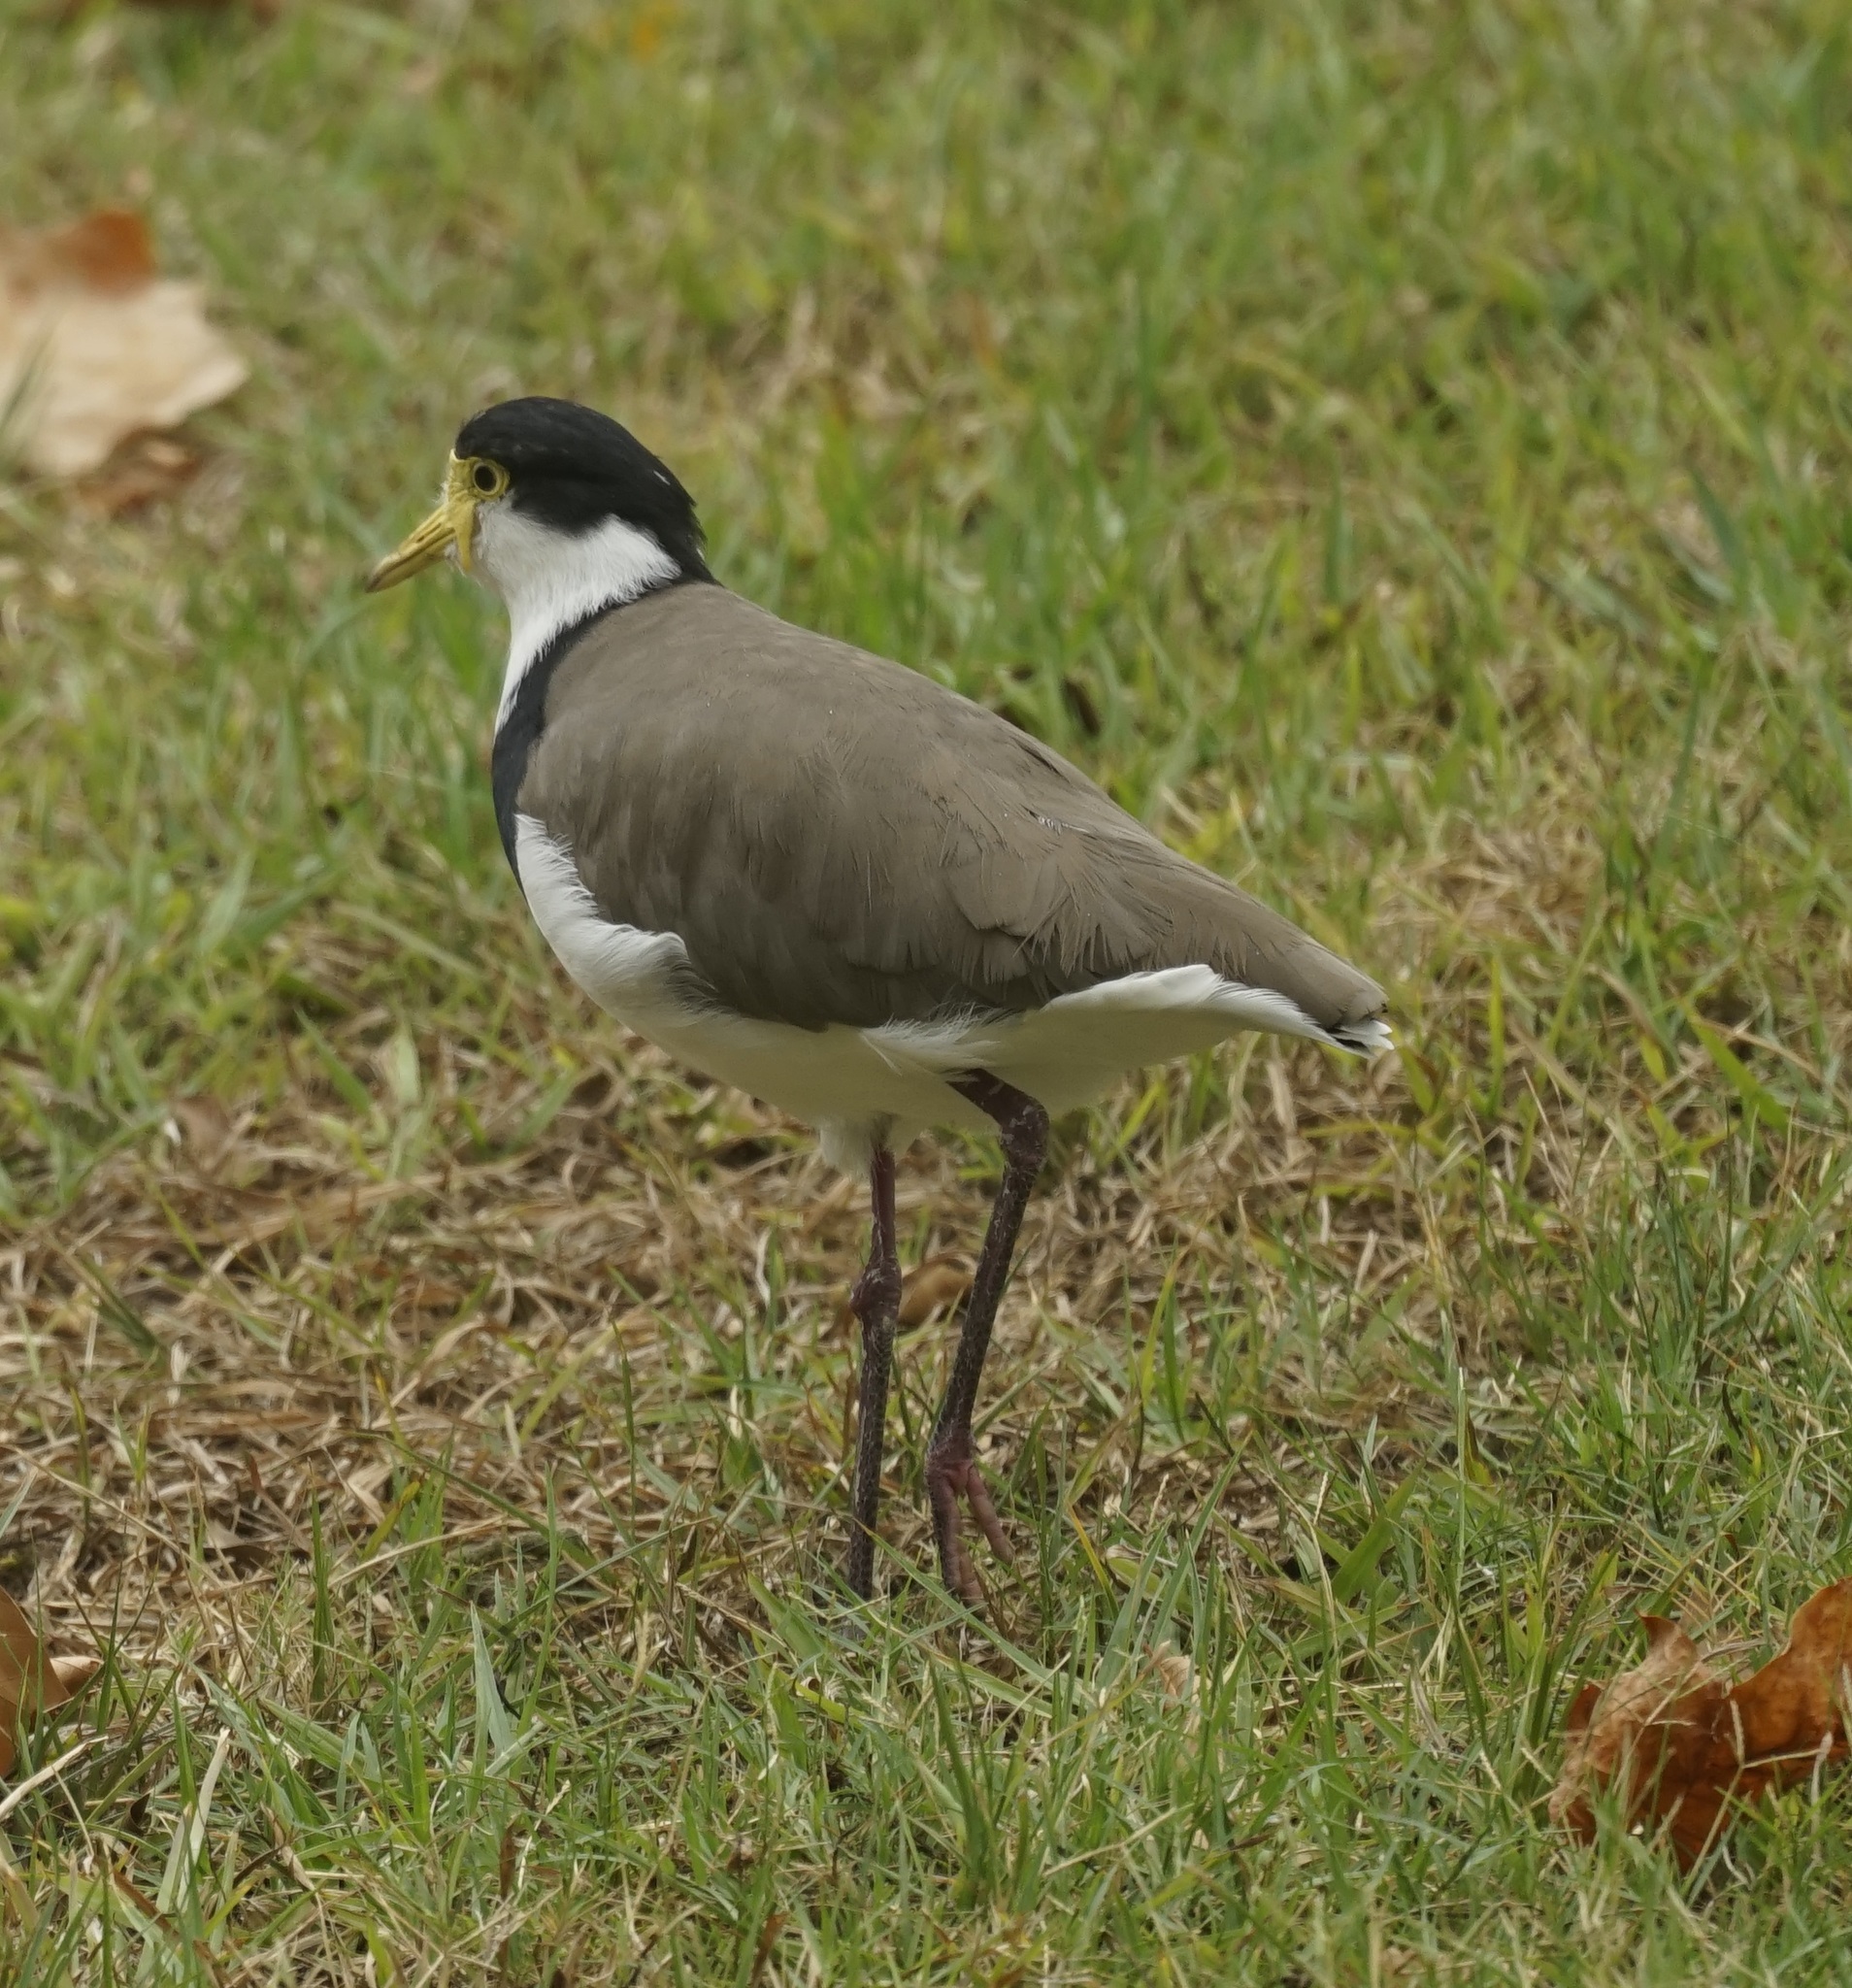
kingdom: Animalia
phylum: Chordata
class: Aves
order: Charadriiformes
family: Charadriidae
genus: Vanellus
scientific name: Vanellus miles
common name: Masked lapwing
